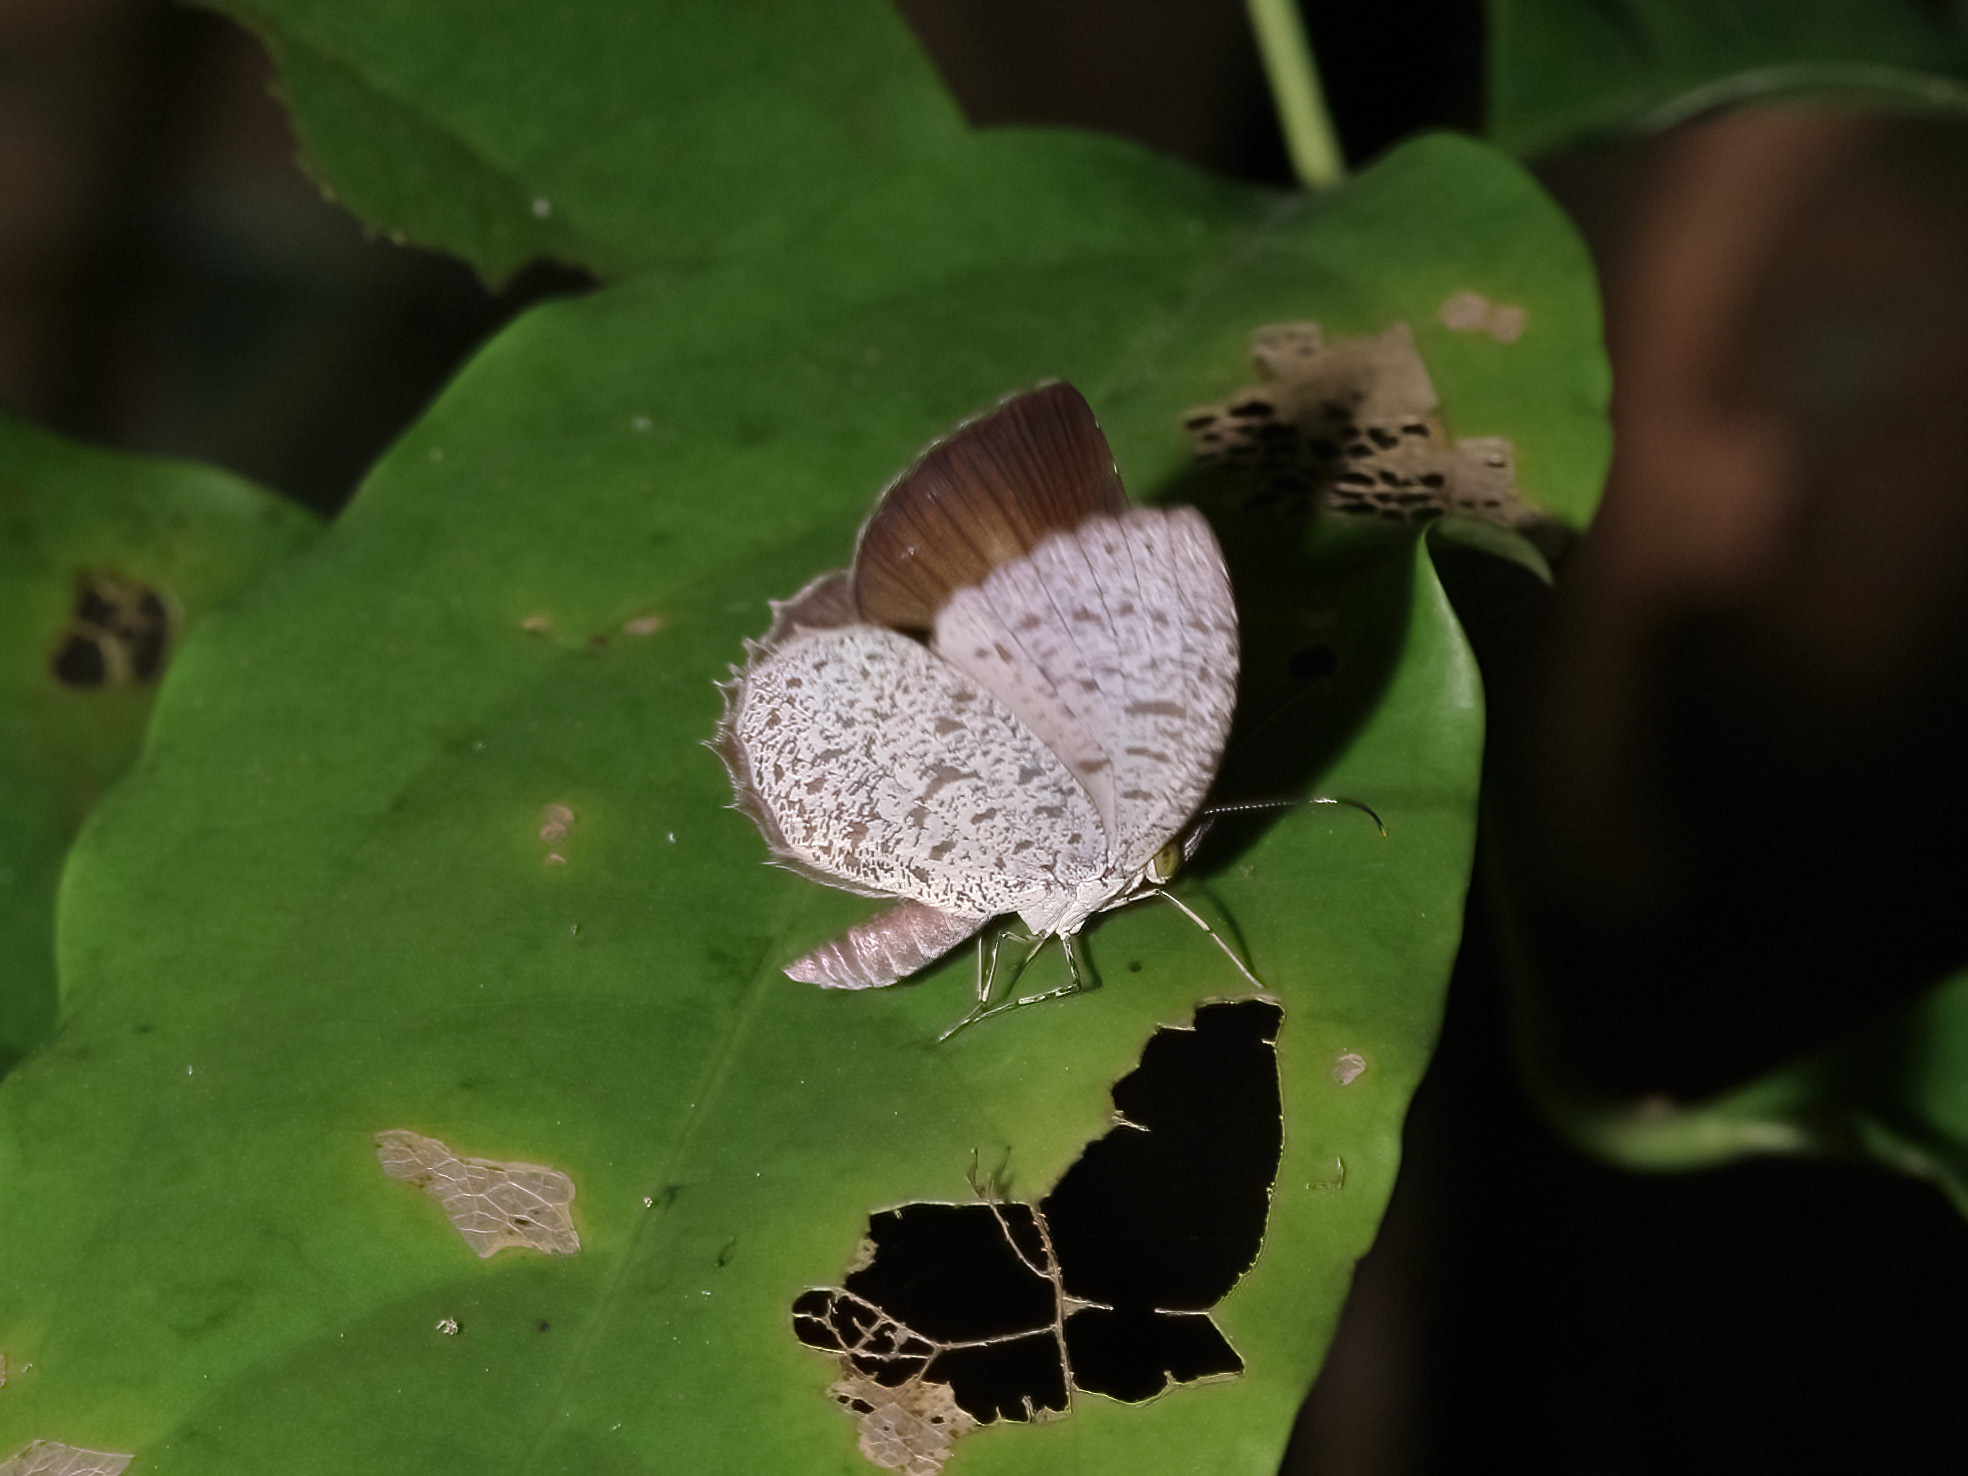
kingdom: Animalia
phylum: Arthropoda
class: Insecta
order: Lepidoptera
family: Lycaenidae
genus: Allotinus
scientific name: Allotinus unicolor
